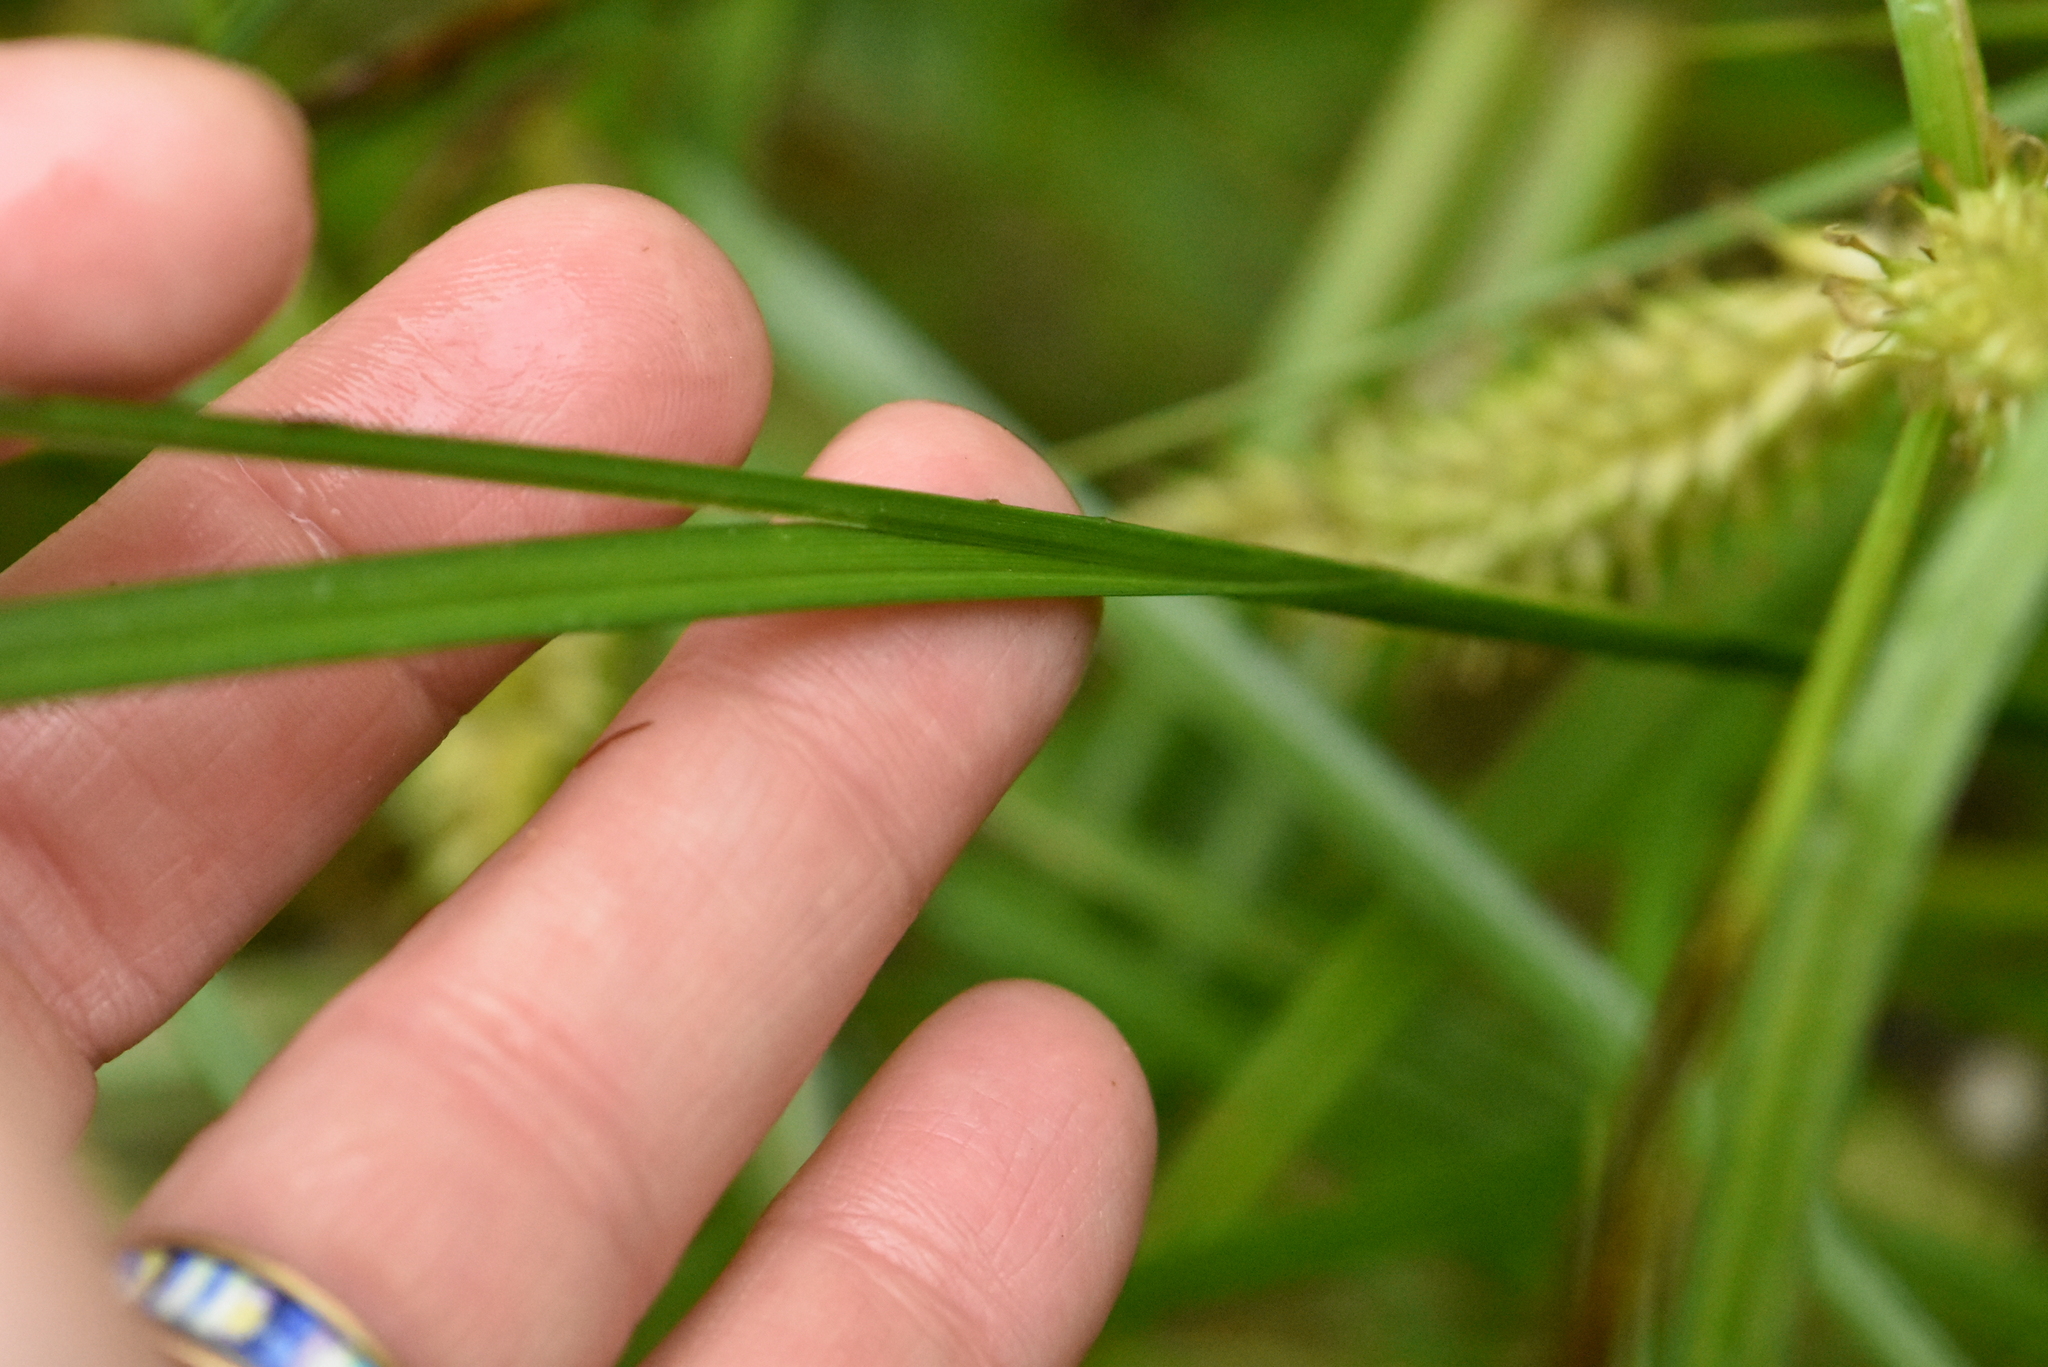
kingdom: Plantae
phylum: Tracheophyta
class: Liliopsida
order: Poales
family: Cyperaceae
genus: Carex
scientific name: Carex vesicaria
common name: Bladder-sedge
